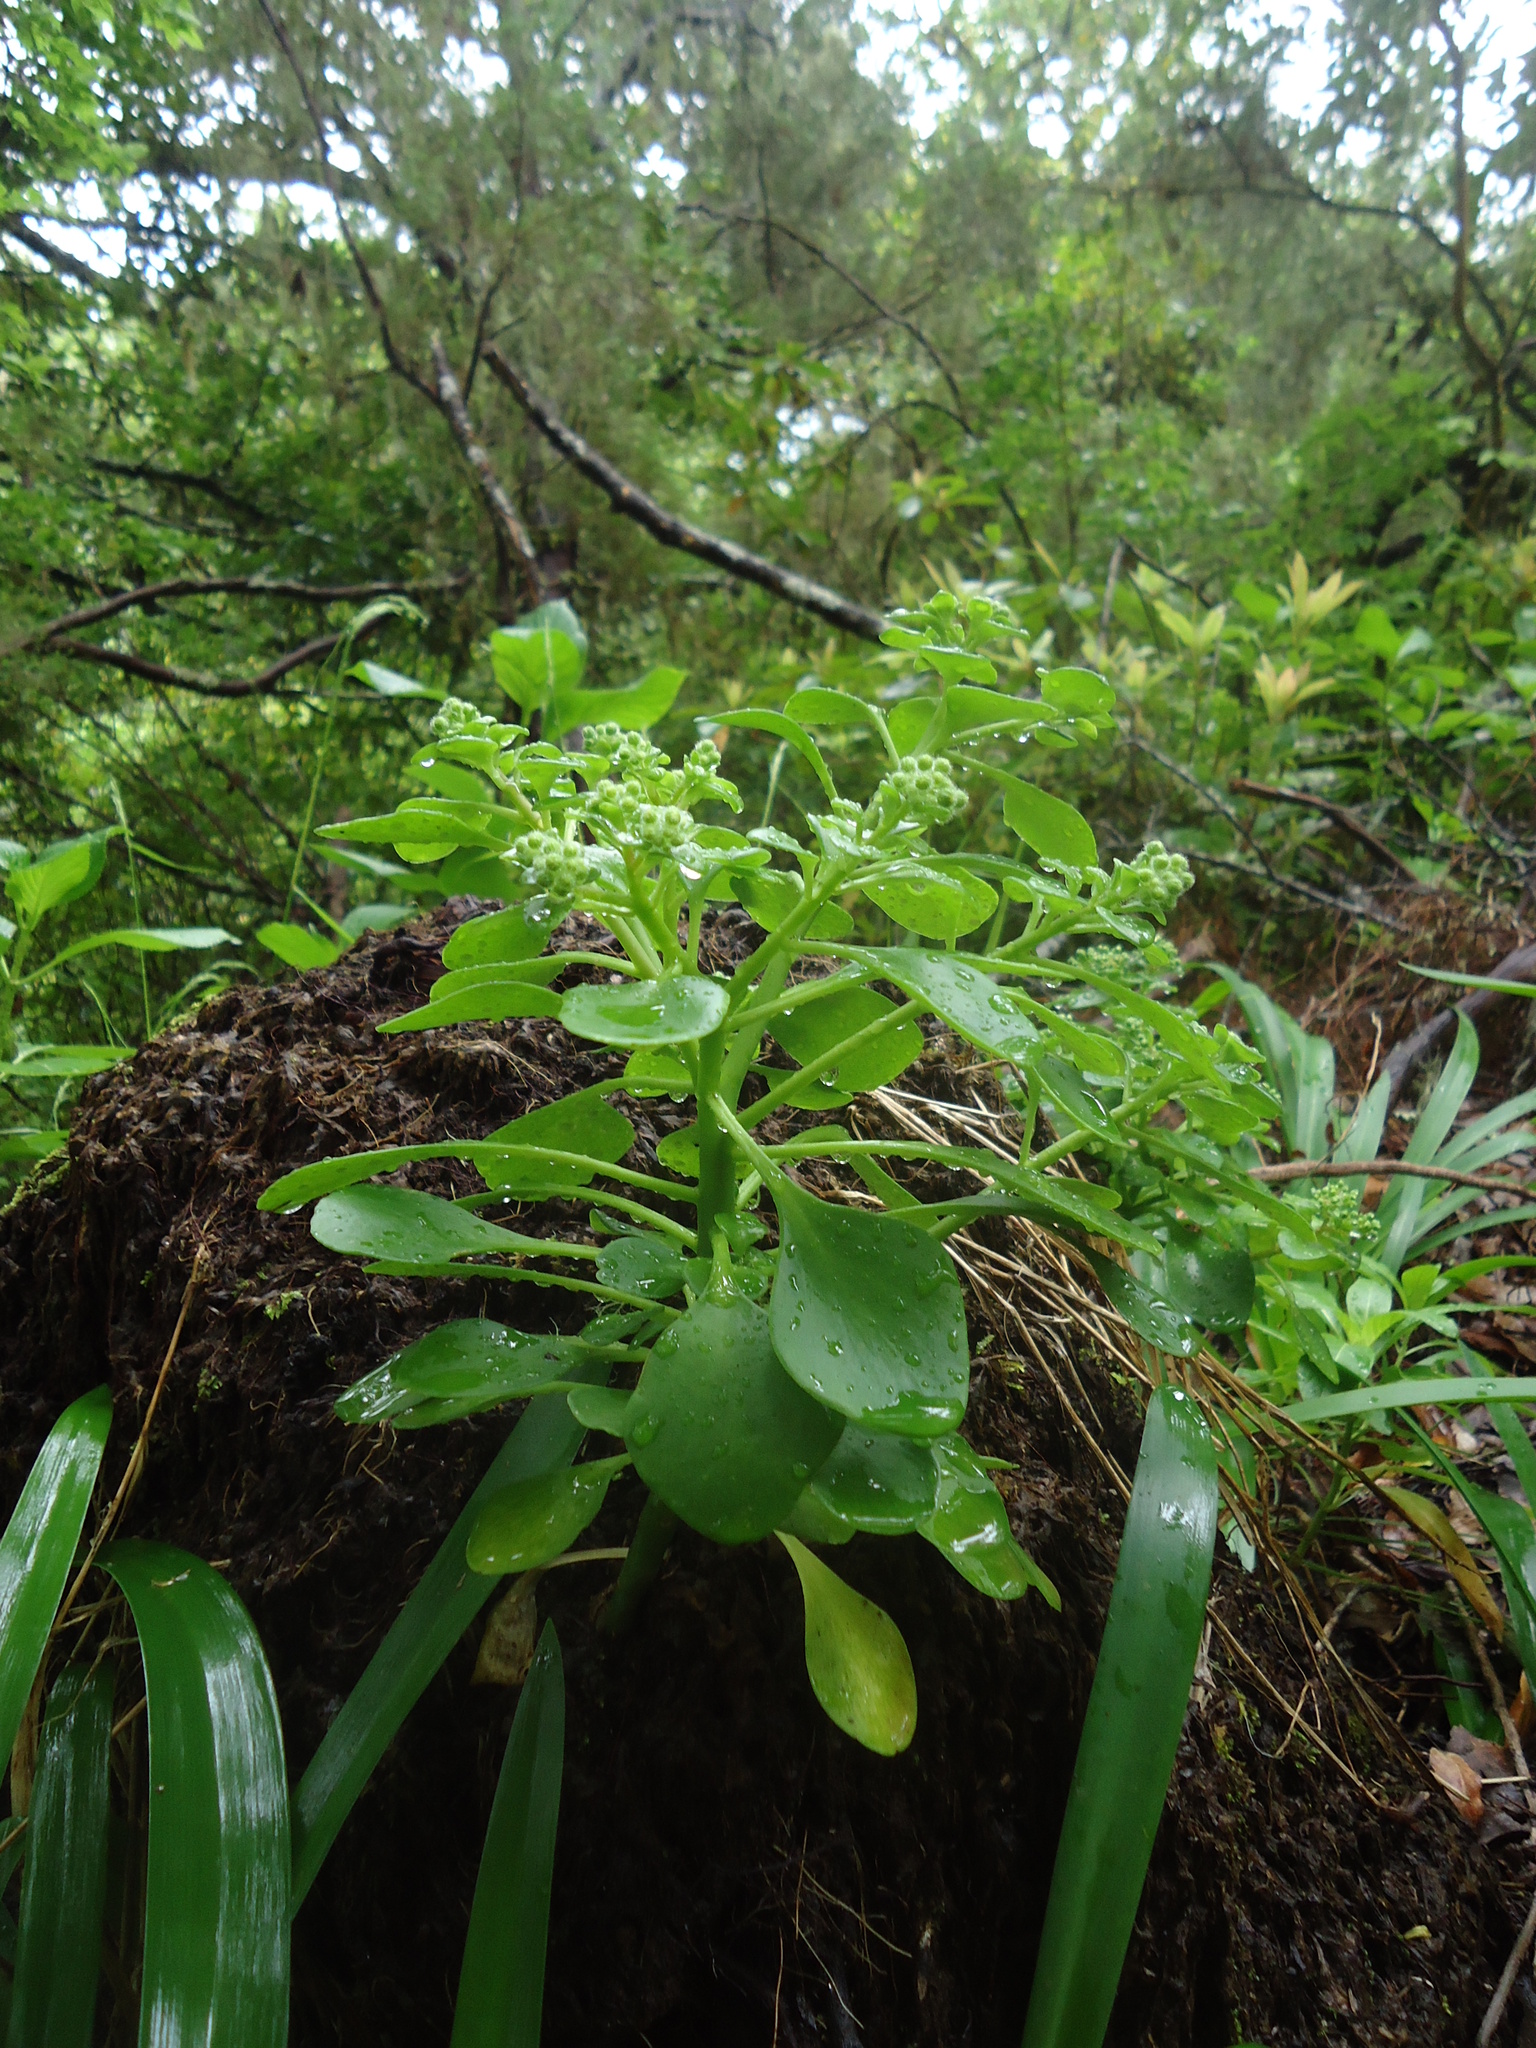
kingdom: Plantae
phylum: Tracheophyta
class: Magnoliopsida
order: Saxifragales
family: Crassulaceae
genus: Aichryson
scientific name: Aichryson divaricatum
